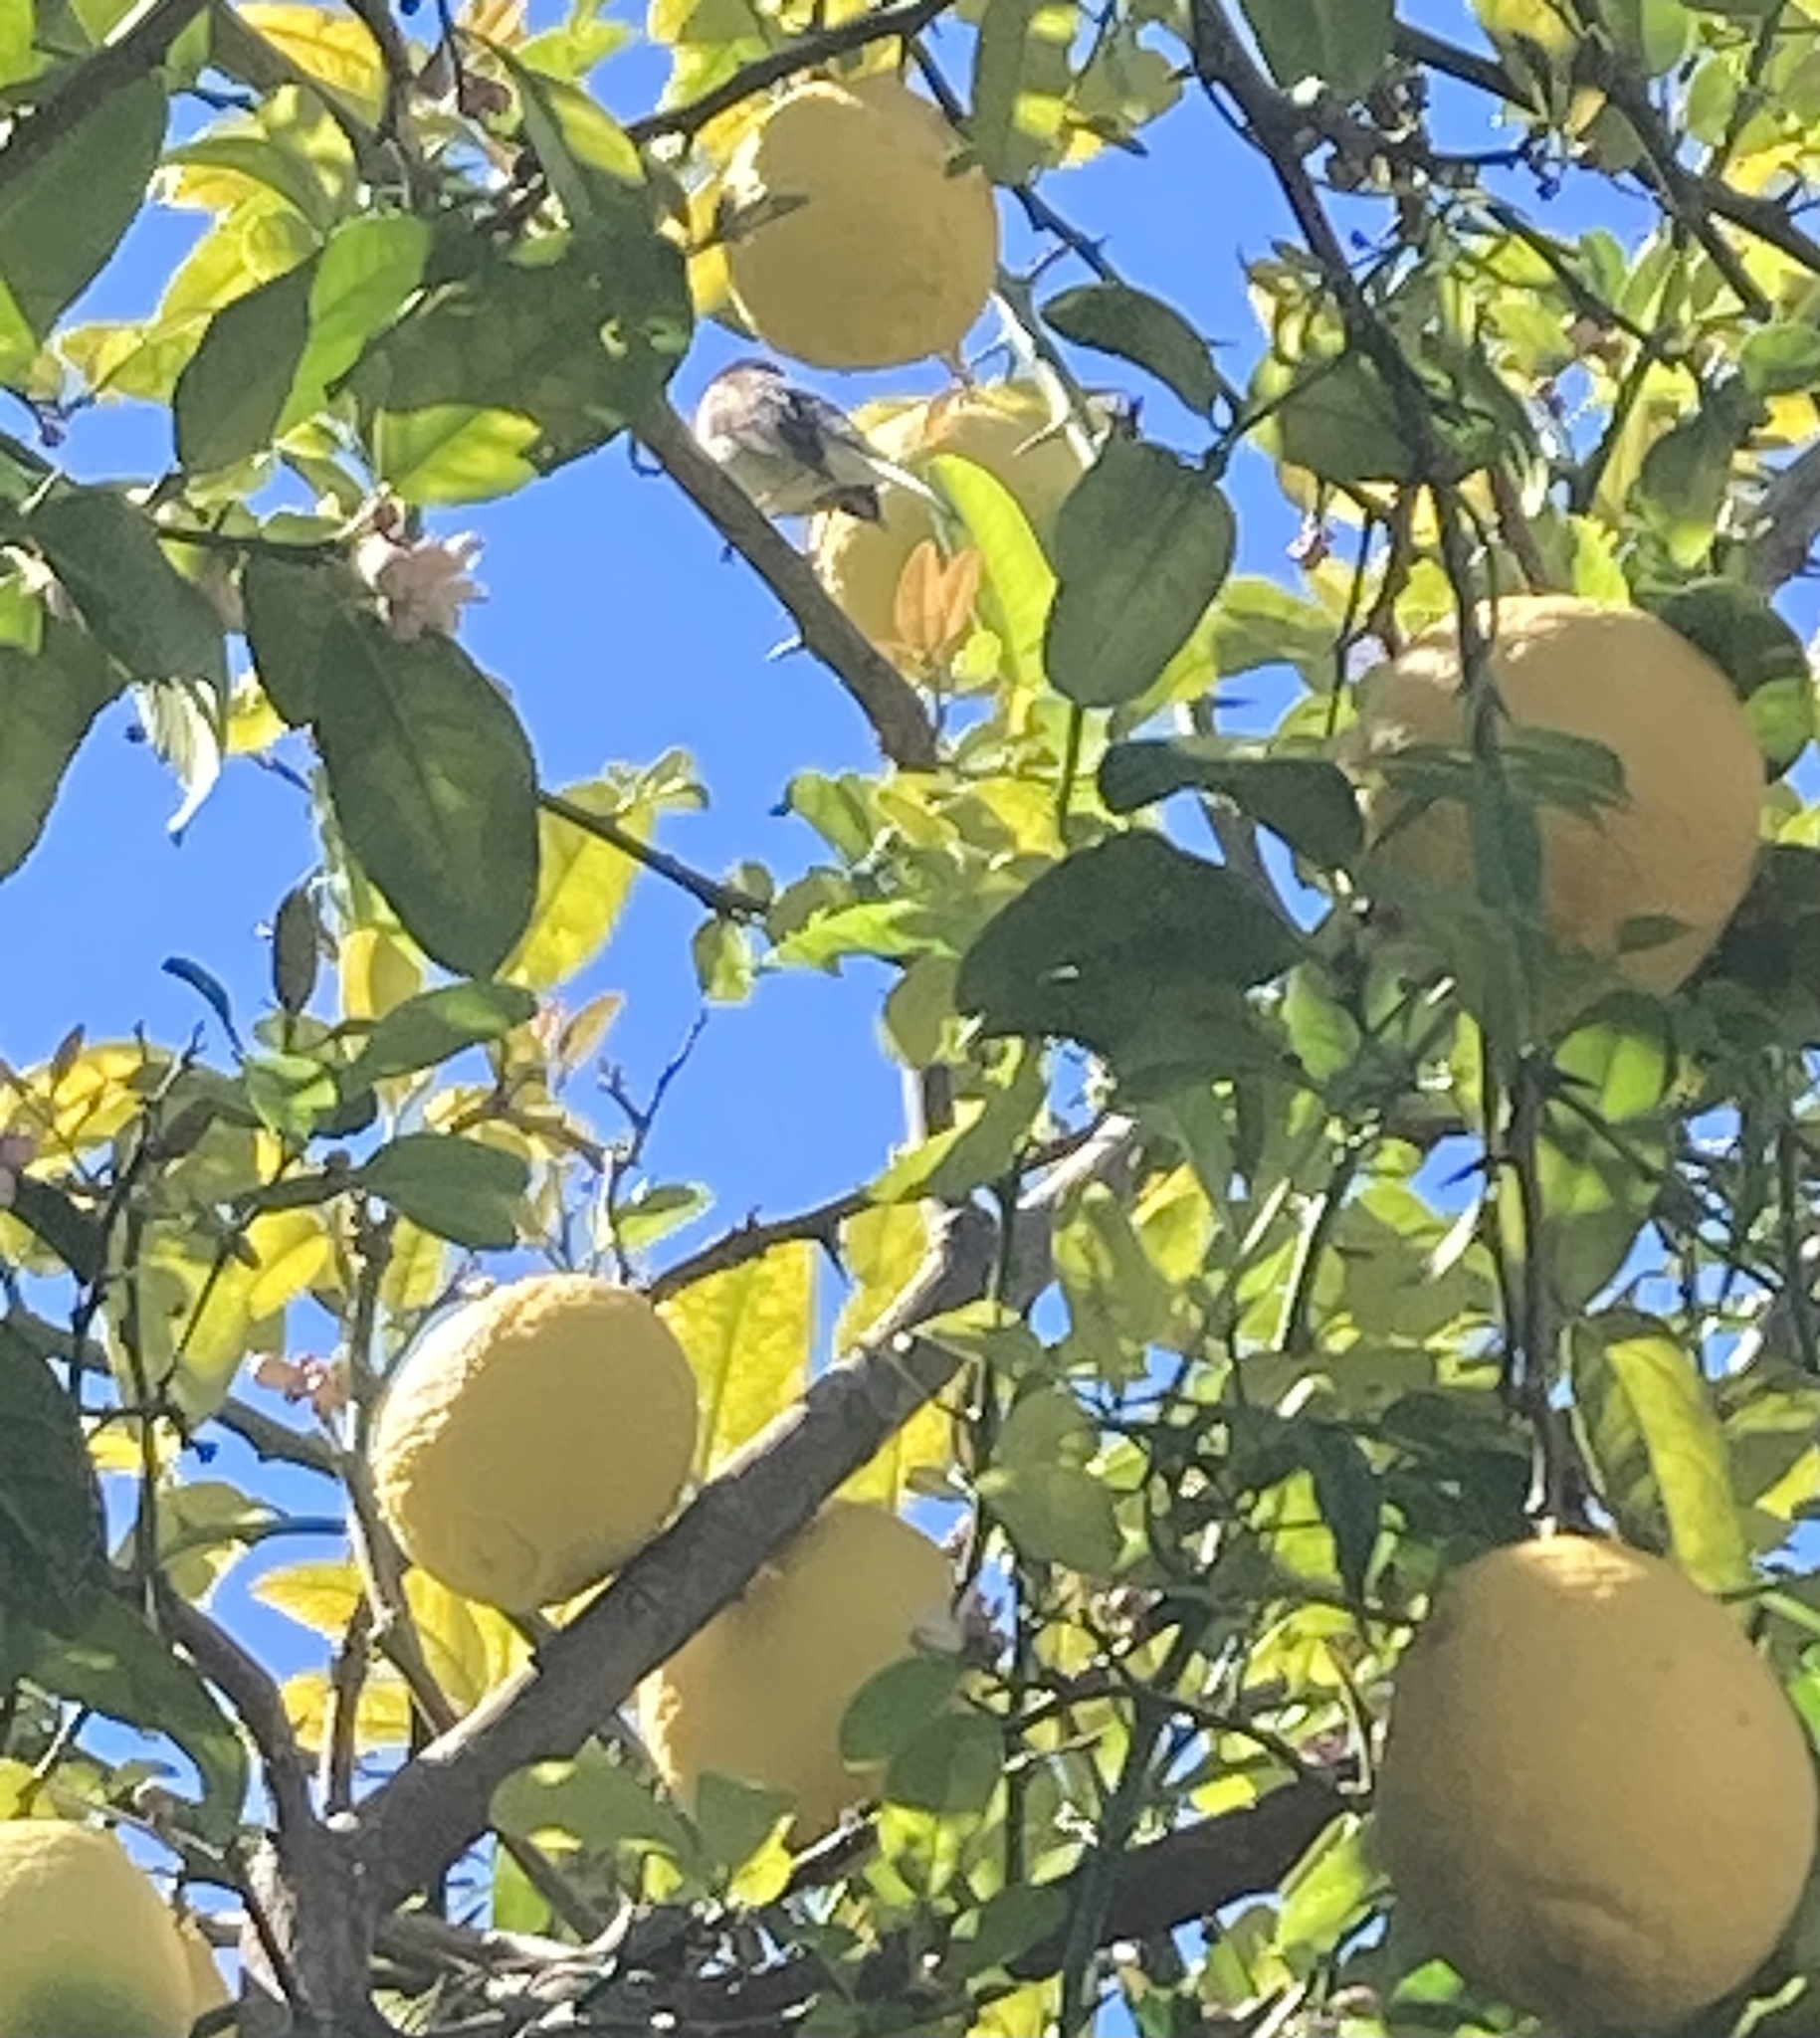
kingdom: Animalia
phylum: Chordata
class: Aves
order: Passeriformes
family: Passerellidae
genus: Junco
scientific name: Junco hyemalis
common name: Dark-eyed junco
